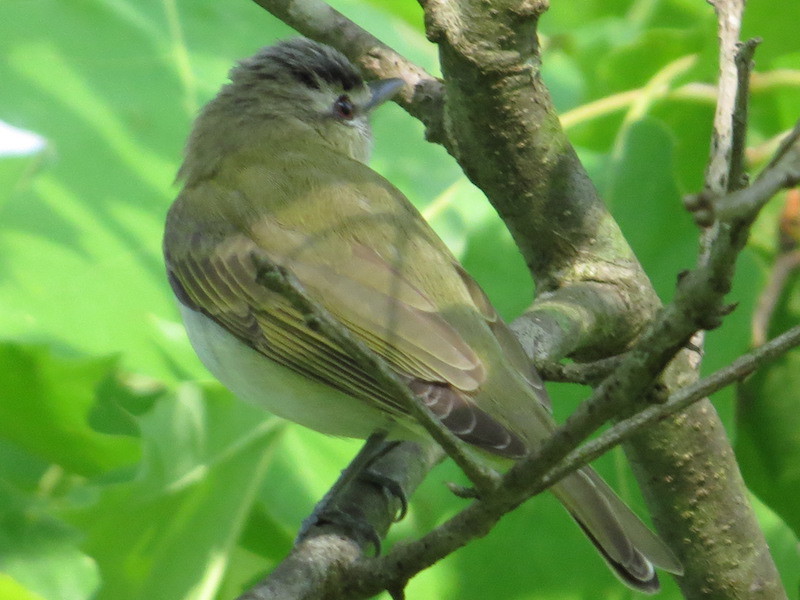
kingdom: Animalia
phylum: Chordata
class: Aves
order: Passeriformes
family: Vireonidae
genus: Vireo
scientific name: Vireo olivaceus
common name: Red-eyed vireo
